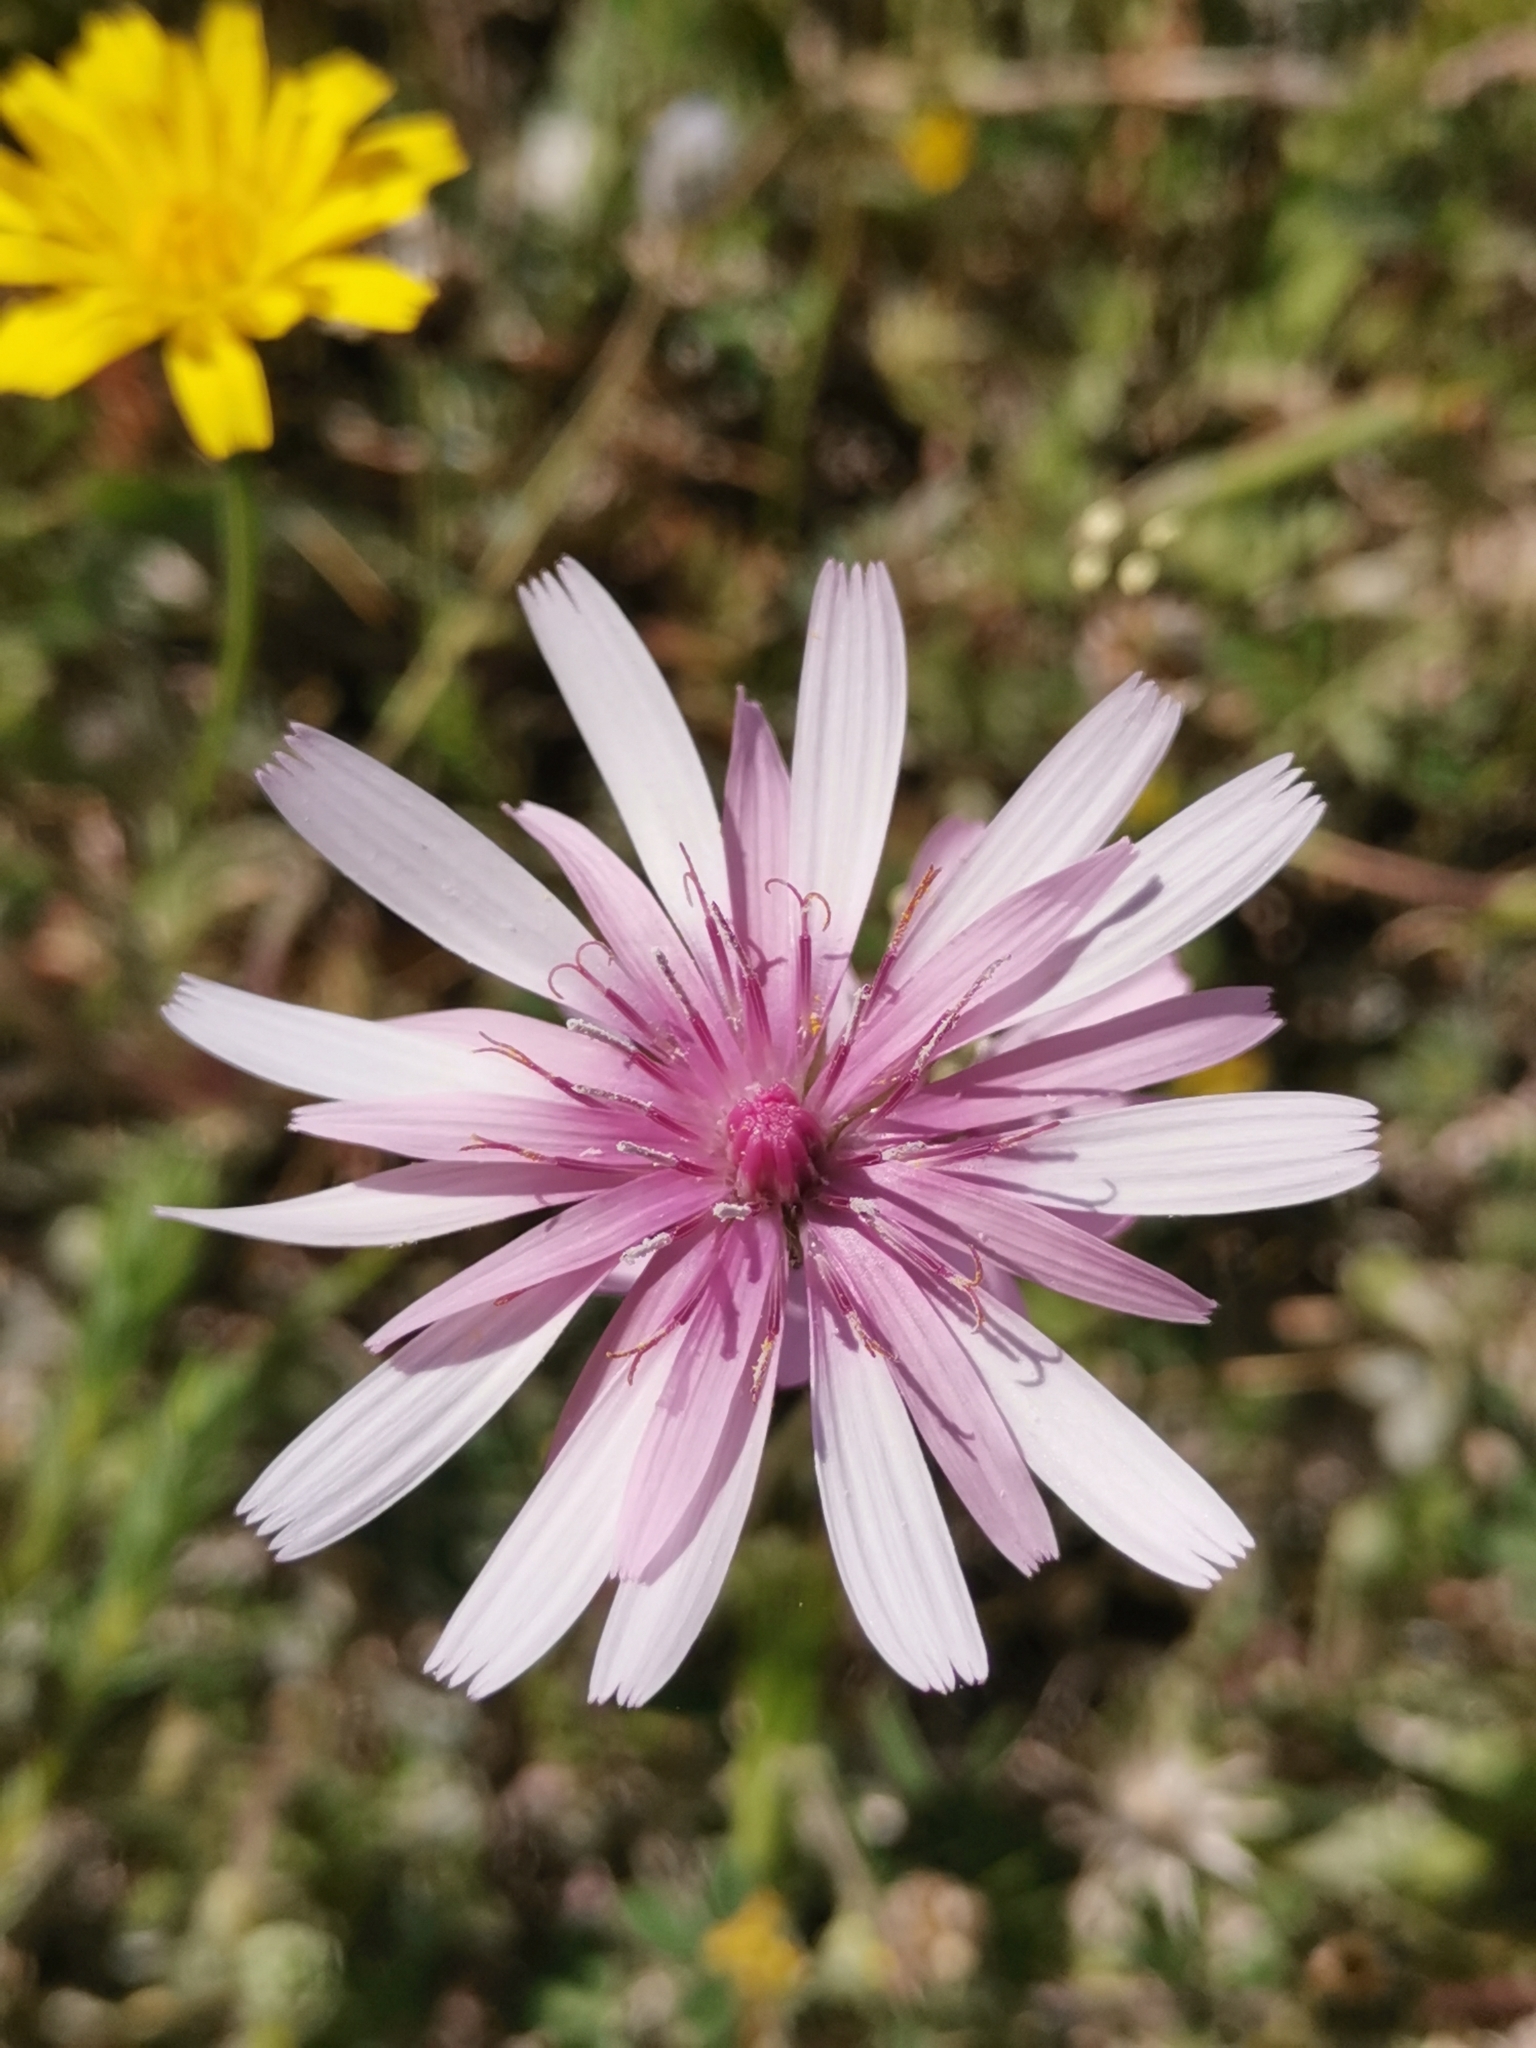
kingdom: Plantae
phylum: Tracheophyta
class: Magnoliopsida
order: Asterales
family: Asteraceae
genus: Crepis
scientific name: Crepis rubra
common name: Pink hawk's-beard
